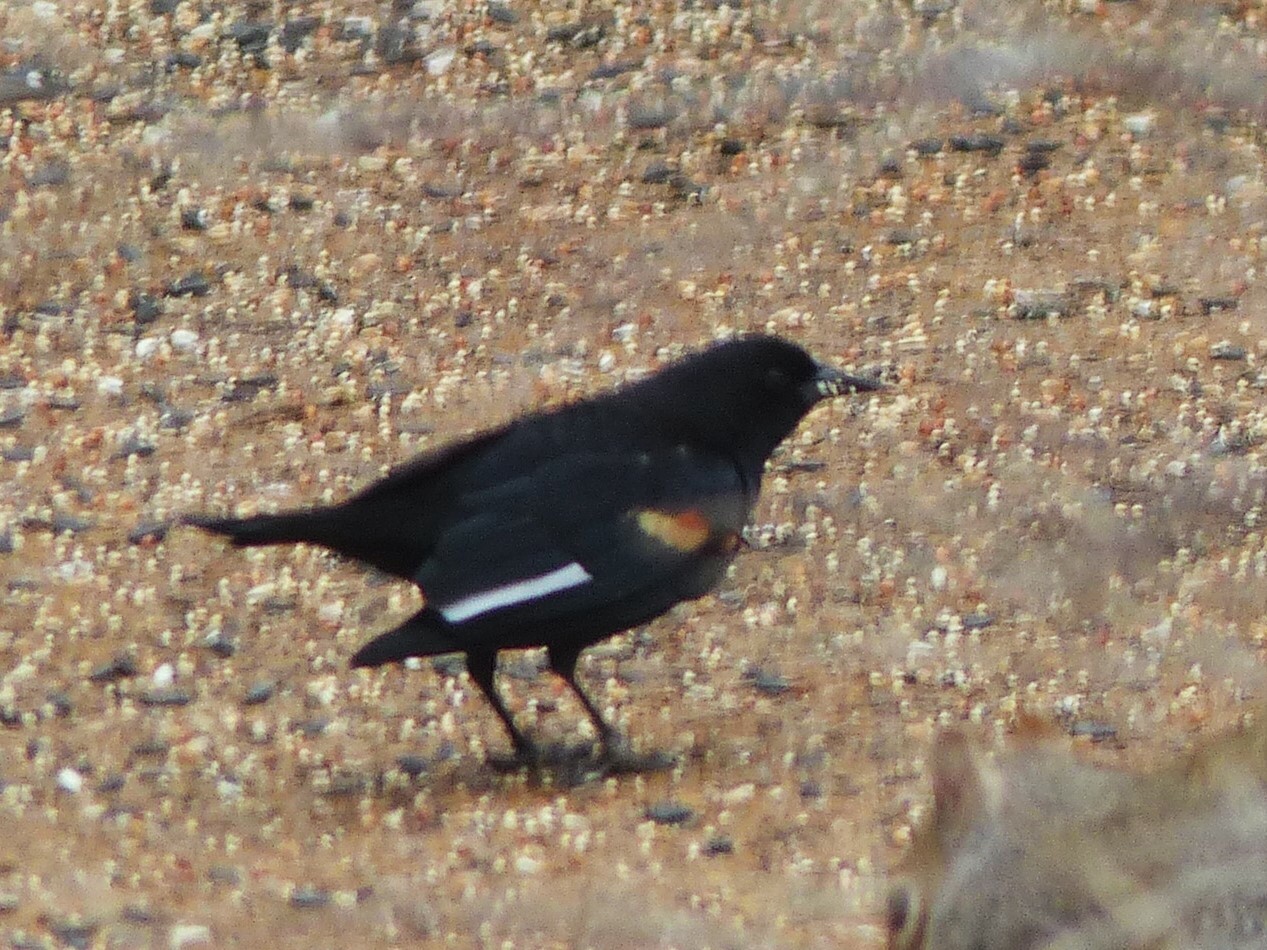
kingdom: Animalia
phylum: Chordata
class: Aves
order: Passeriformes
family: Icteridae
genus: Agelaius
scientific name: Agelaius phoeniceus
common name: Red-winged blackbird
